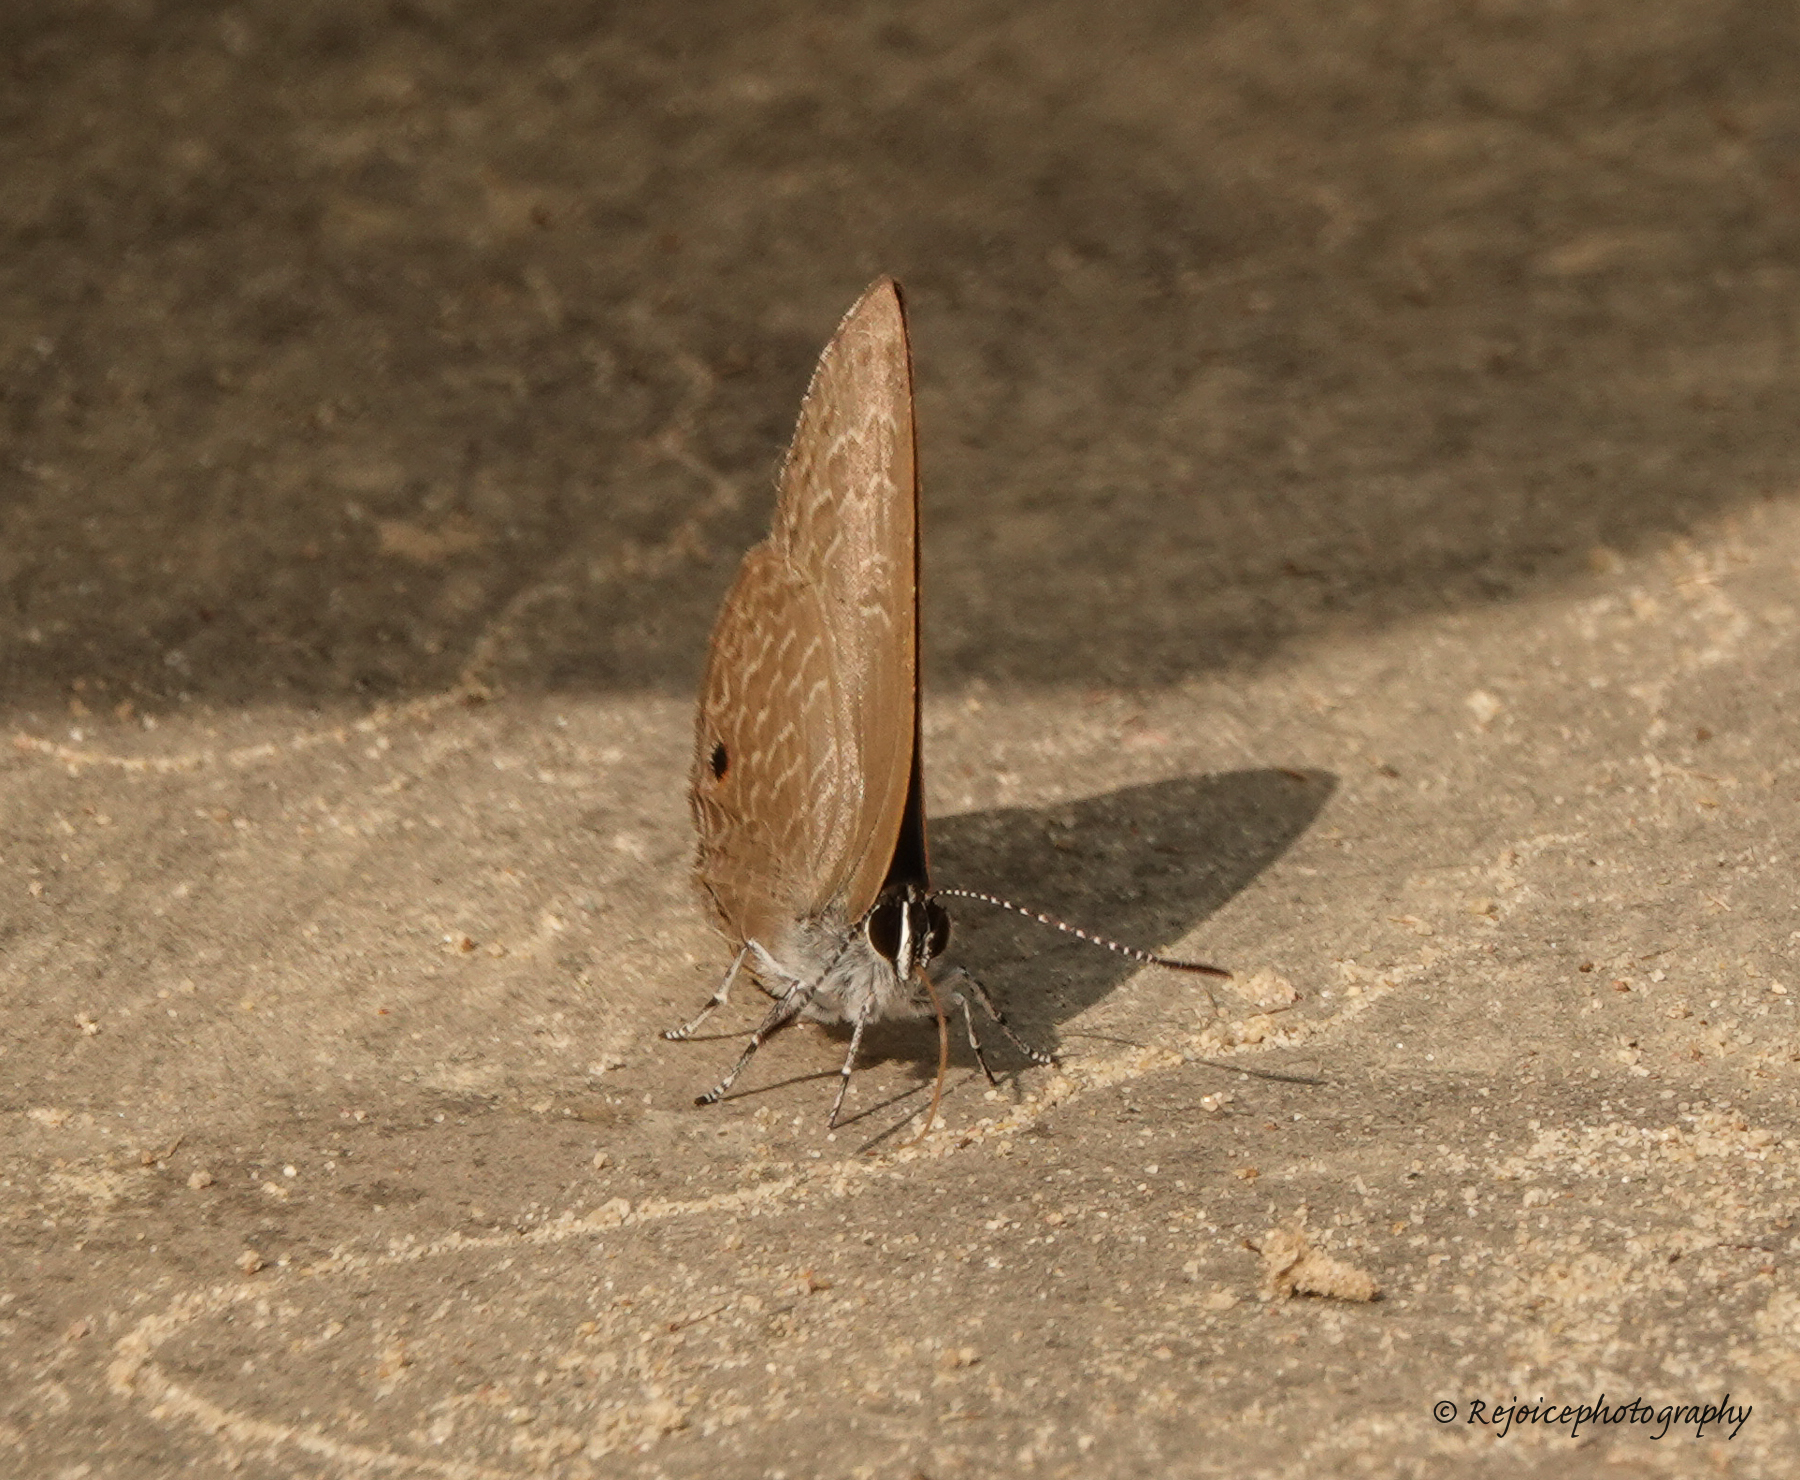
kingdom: Animalia
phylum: Arthropoda
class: Insecta
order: Lepidoptera
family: Lycaenidae
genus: Anthene
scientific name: Anthene emolus
